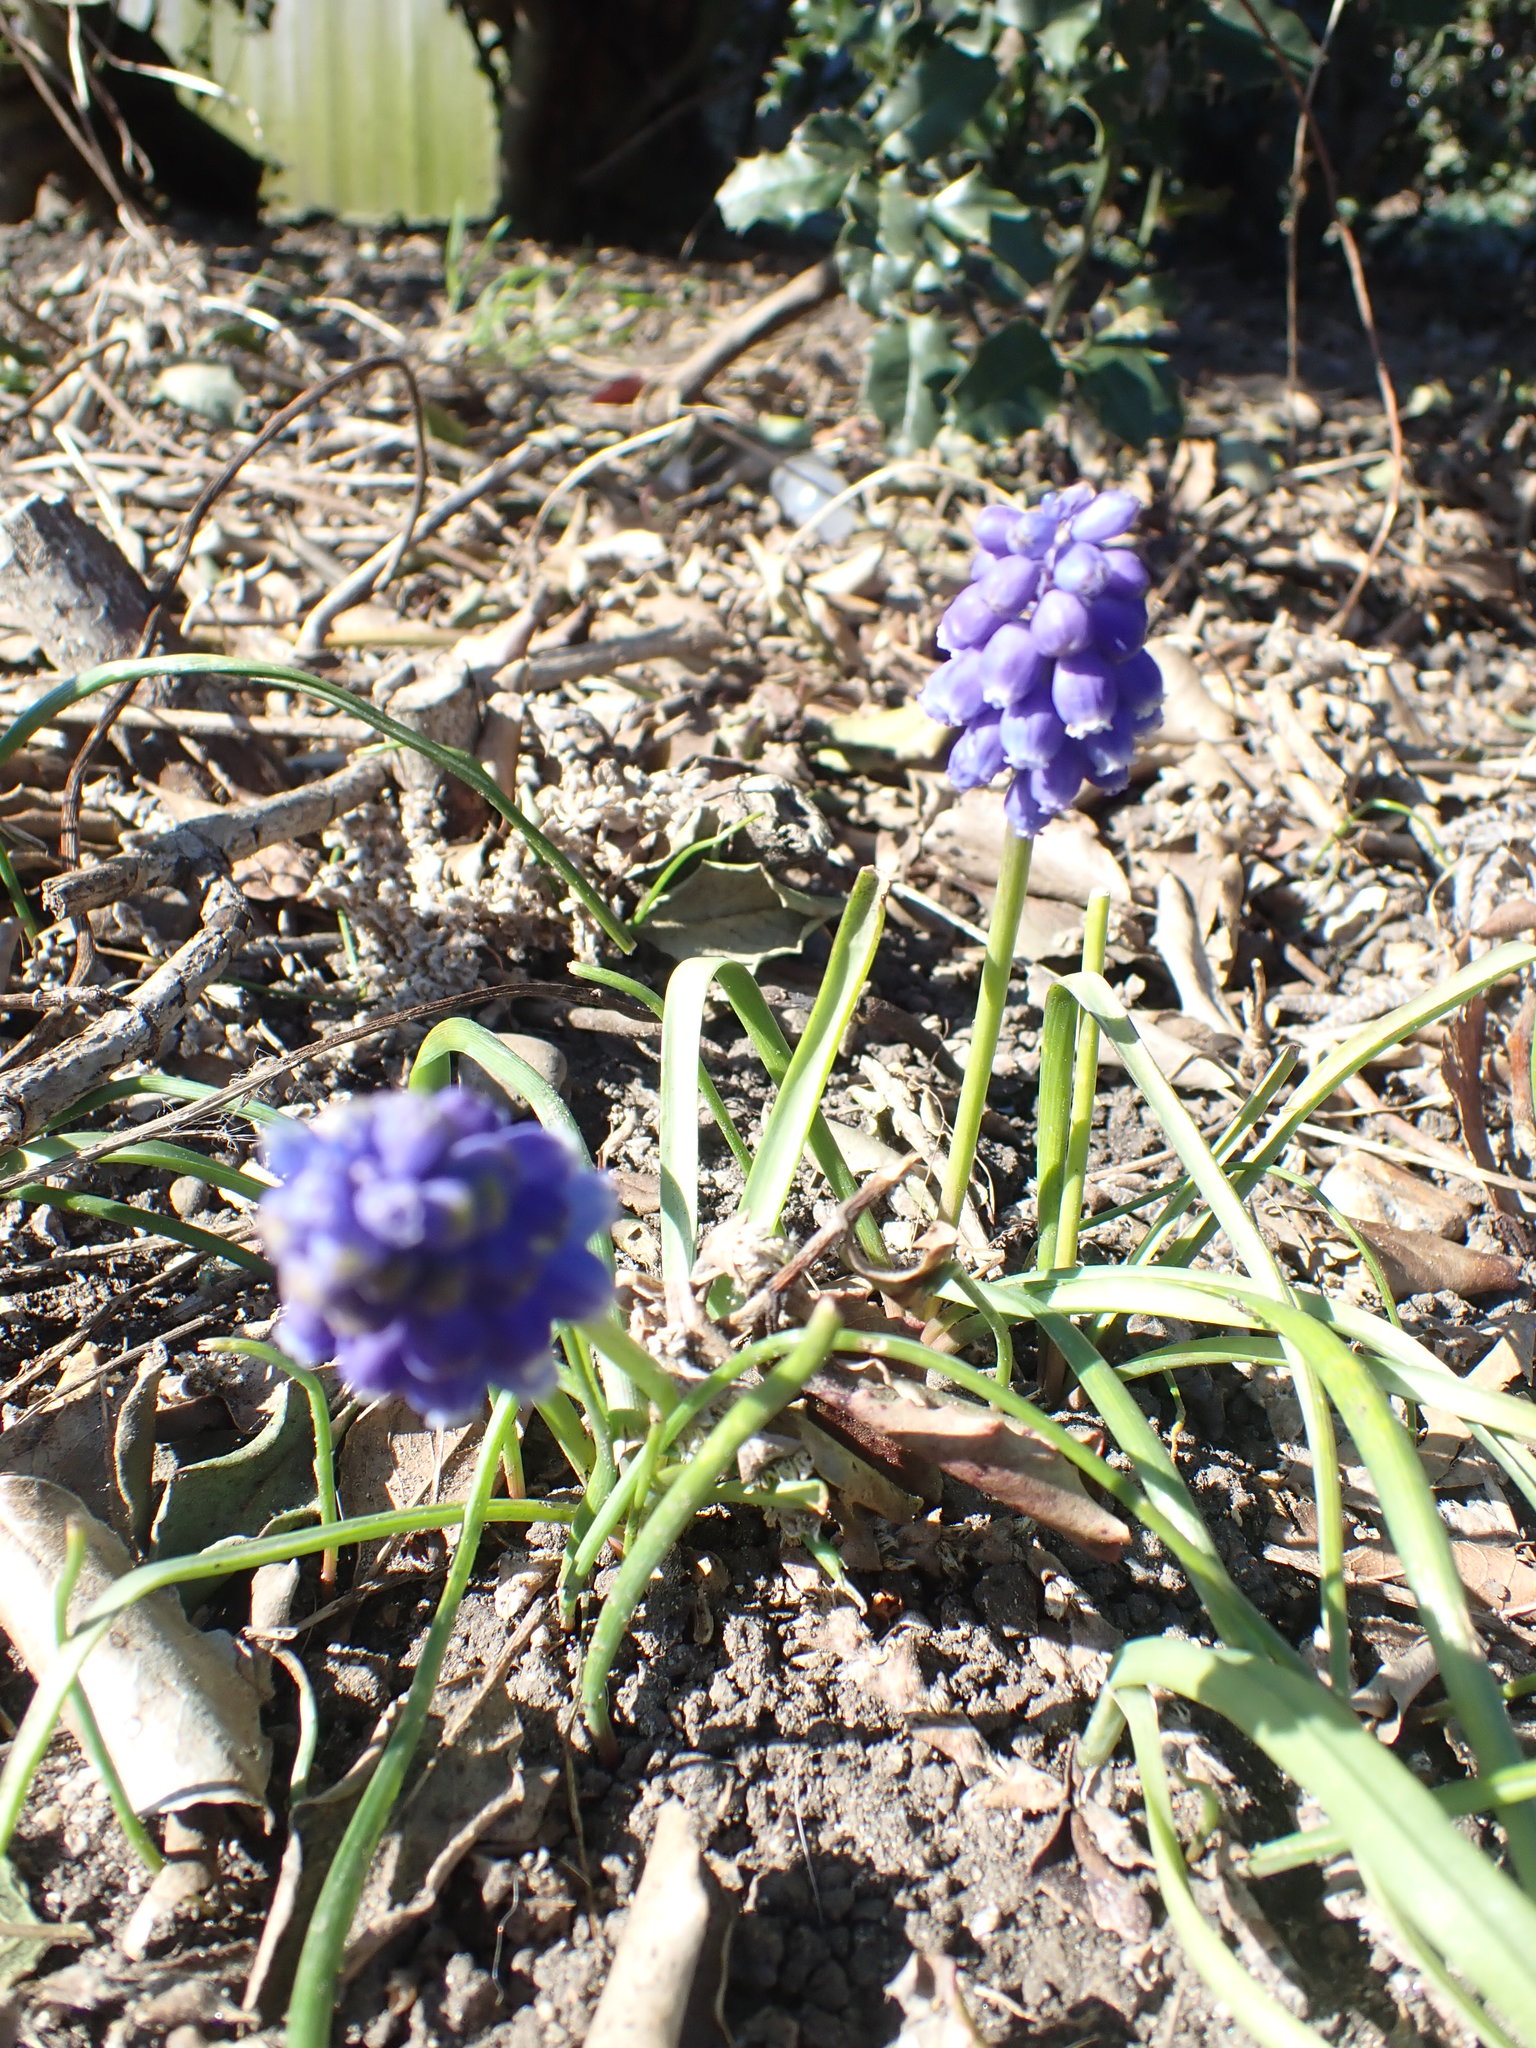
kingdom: Plantae
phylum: Tracheophyta
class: Liliopsida
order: Asparagales
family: Asparagaceae
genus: Muscari
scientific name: Muscari armeniacum
